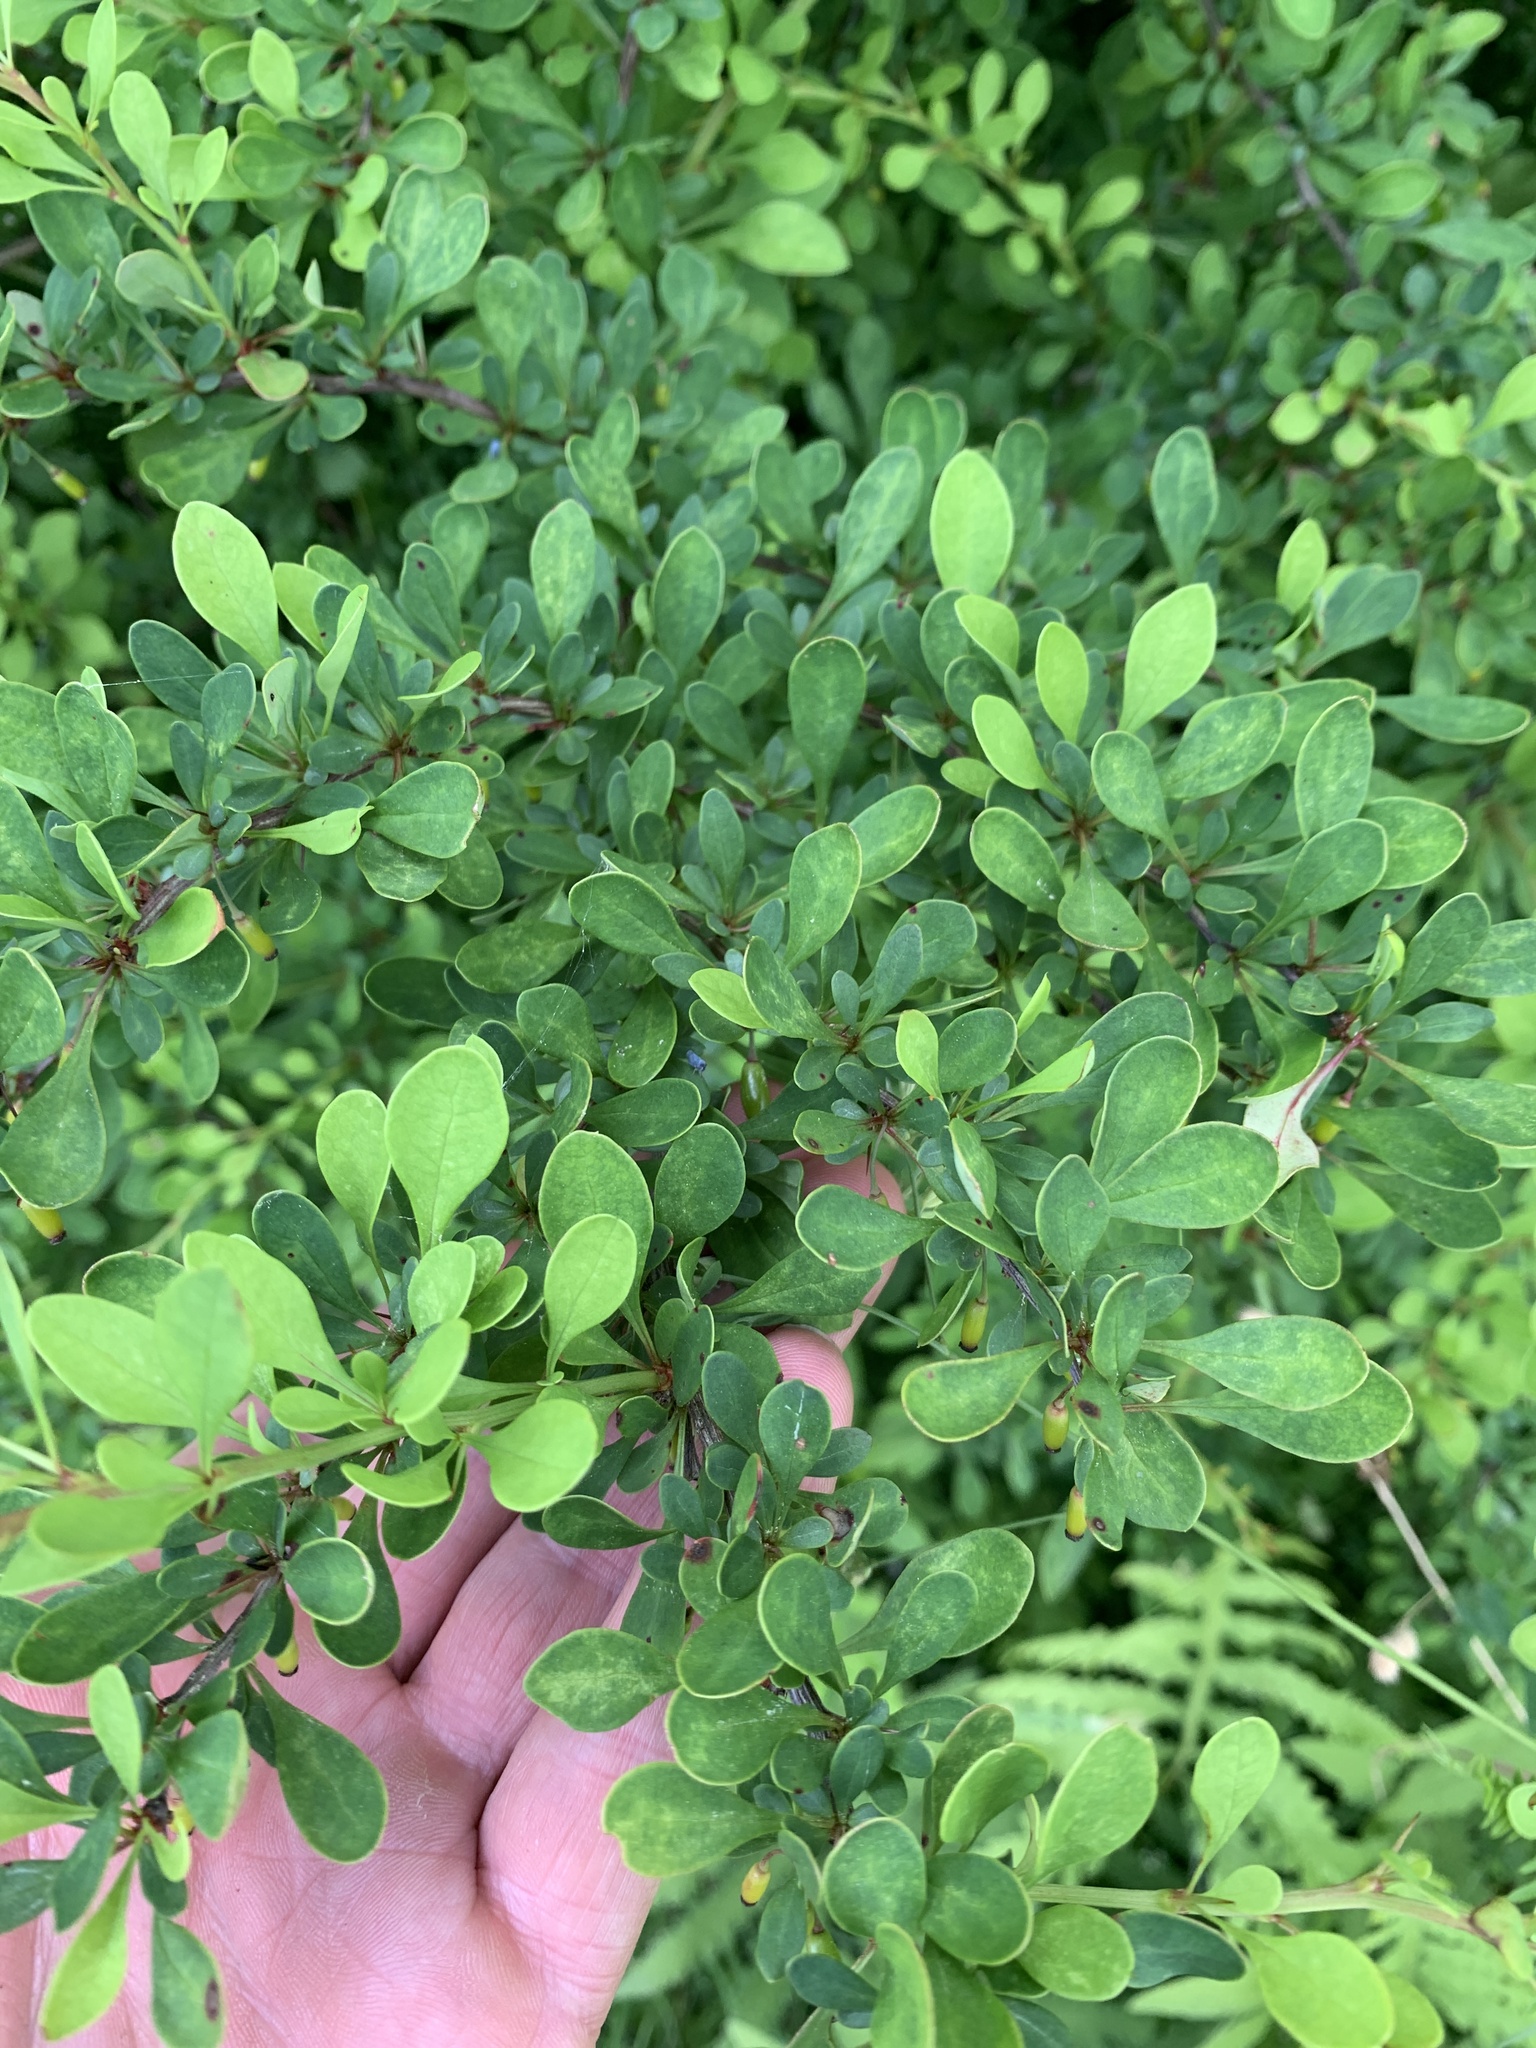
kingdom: Plantae
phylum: Tracheophyta
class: Magnoliopsida
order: Ranunculales
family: Berberidaceae
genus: Berberis
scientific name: Berberis thunbergii
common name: Japanese barberry
